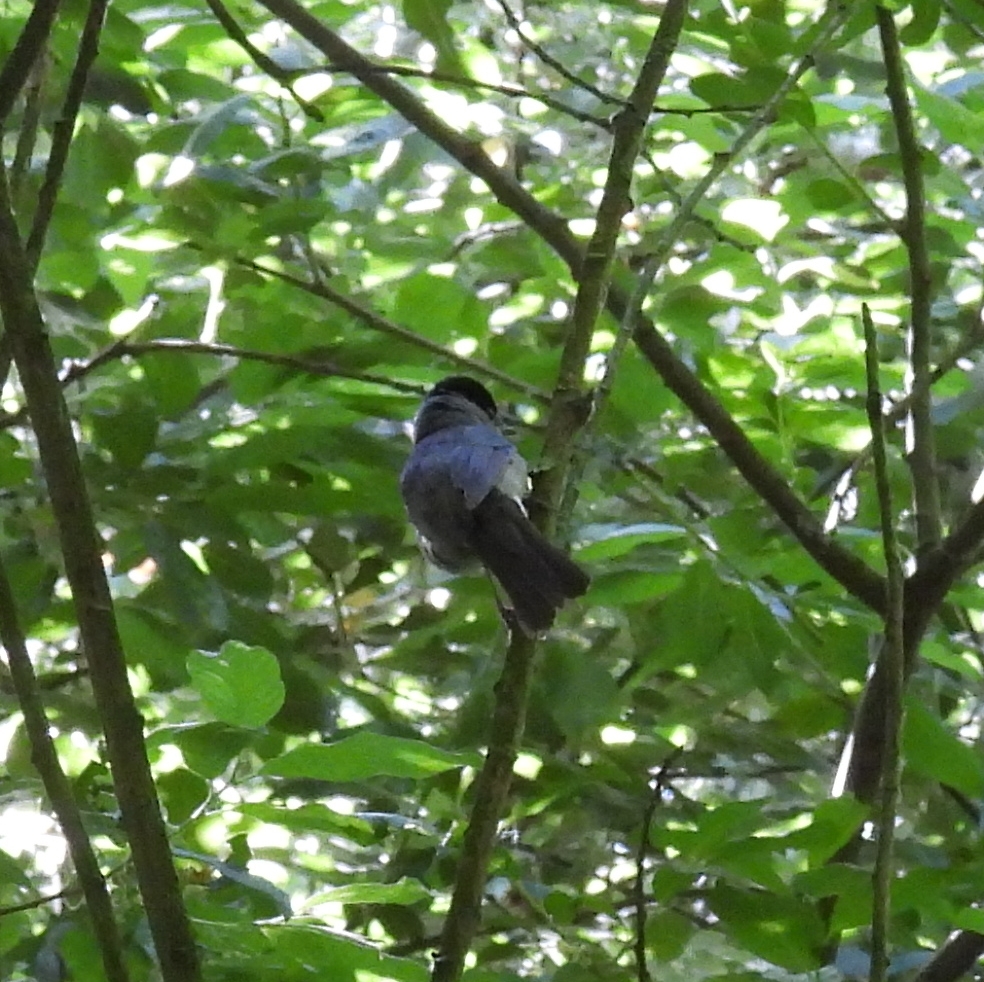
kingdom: Animalia
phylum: Chordata
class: Aves
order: Passeriformes
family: Sylviidae
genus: Sylvia
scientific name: Sylvia atricapilla
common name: Eurasian blackcap
